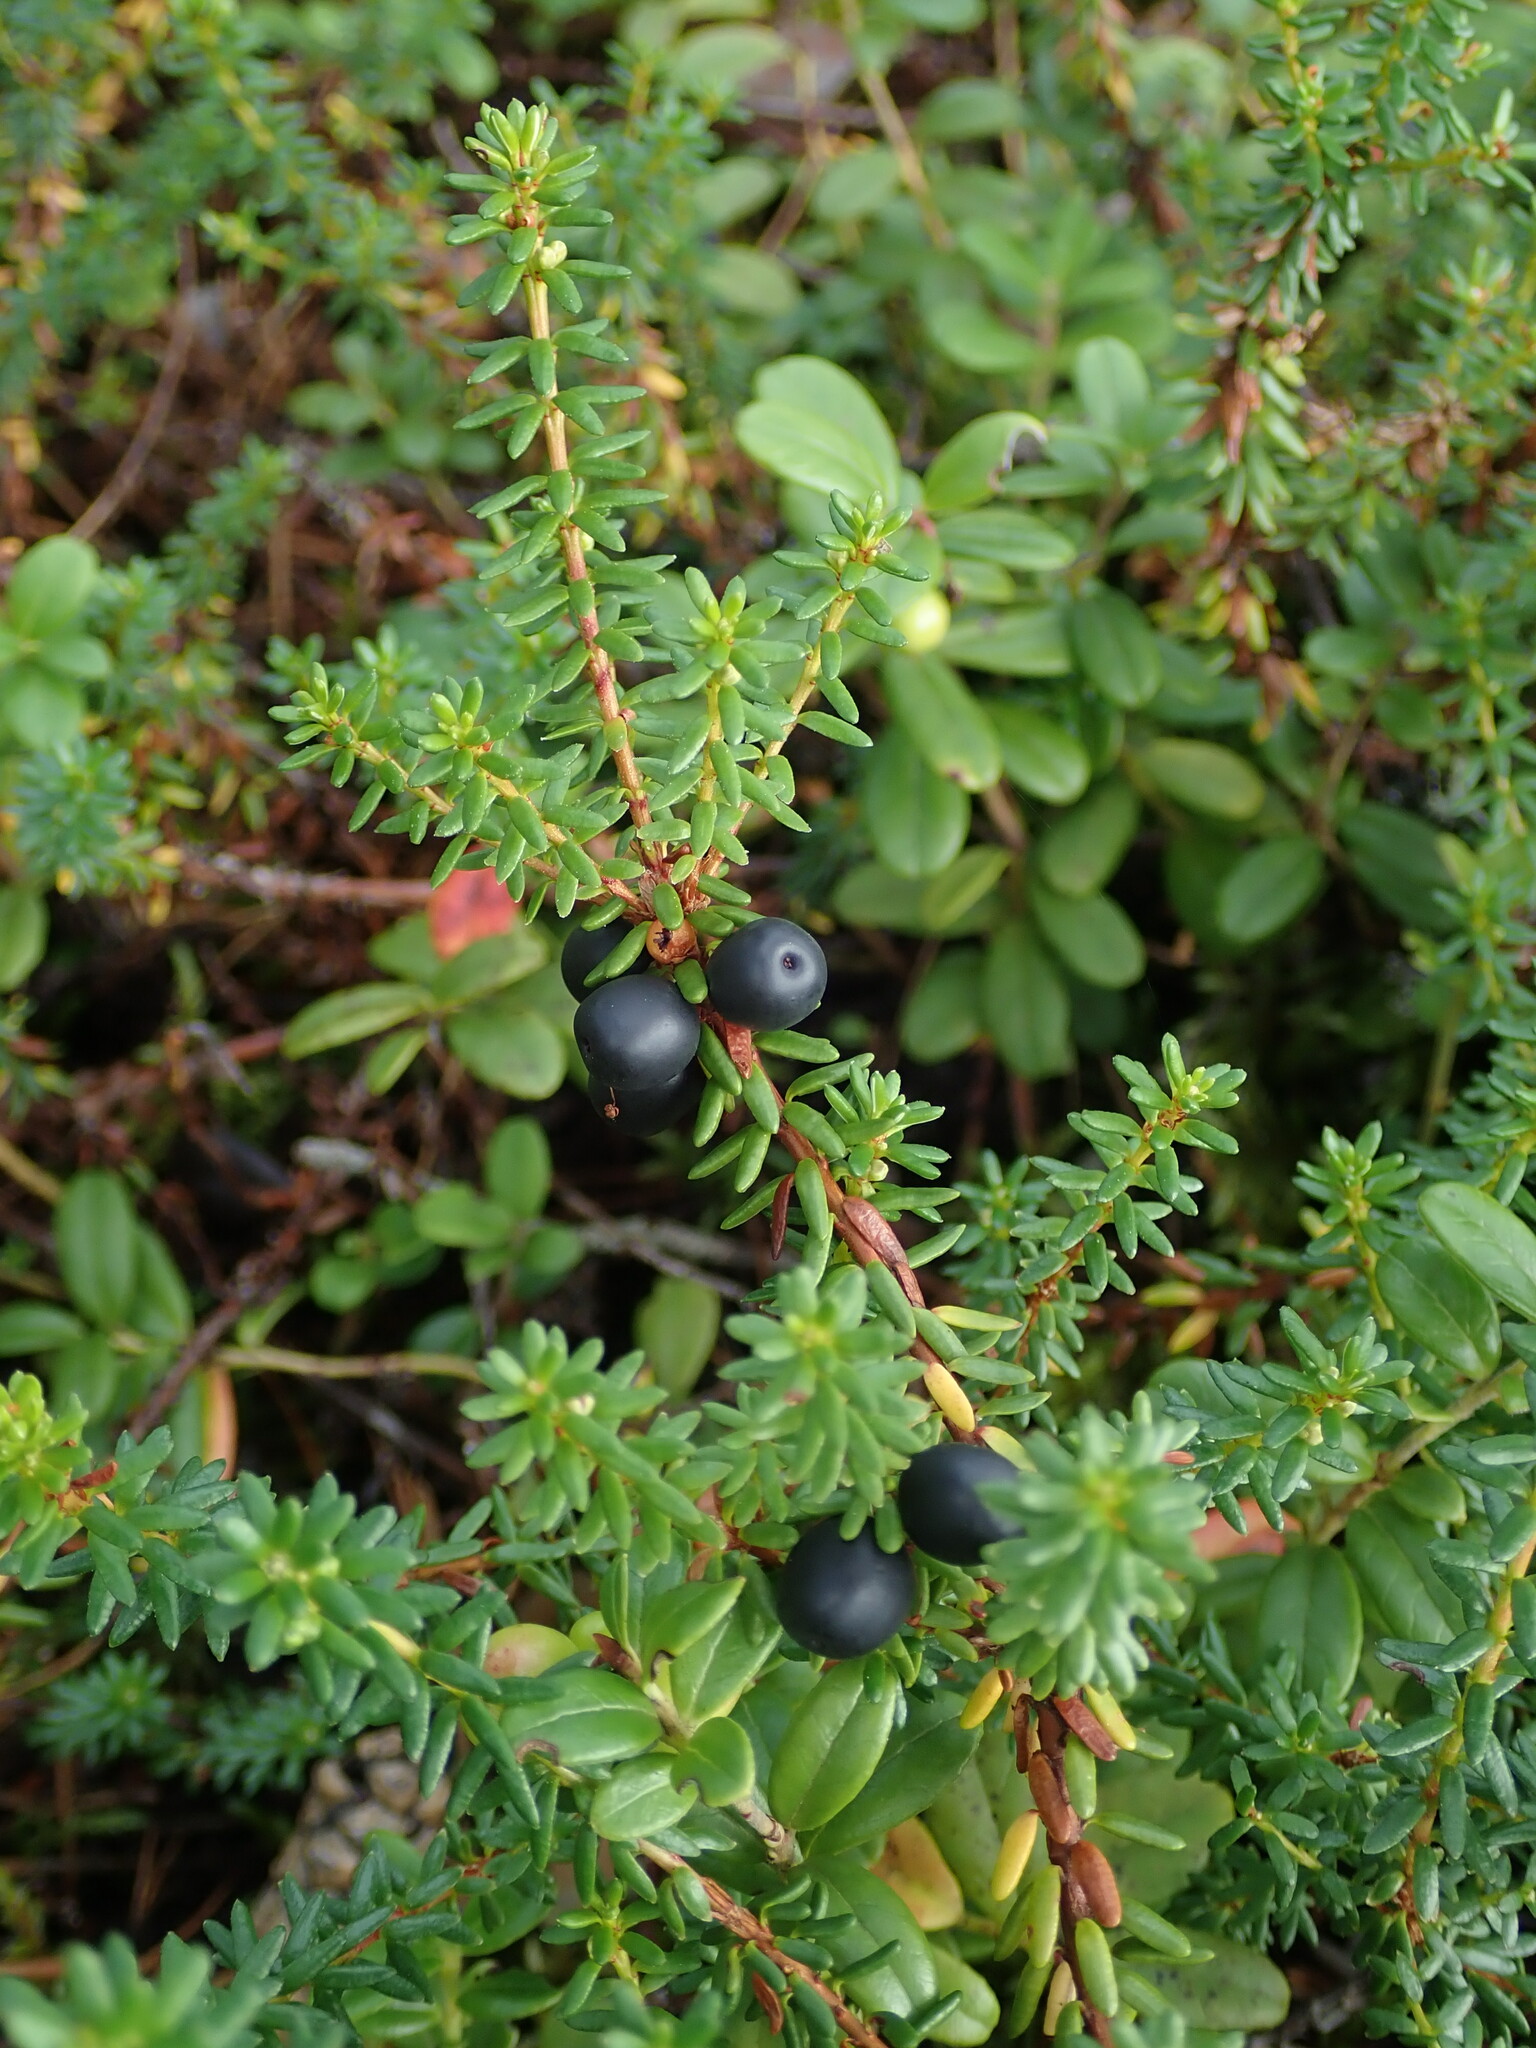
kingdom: Plantae
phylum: Tracheophyta
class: Magnoliopsida
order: Ericales
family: Ericaceae
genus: Empetrum
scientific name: Empetrum nigrum
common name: Black crowberry
